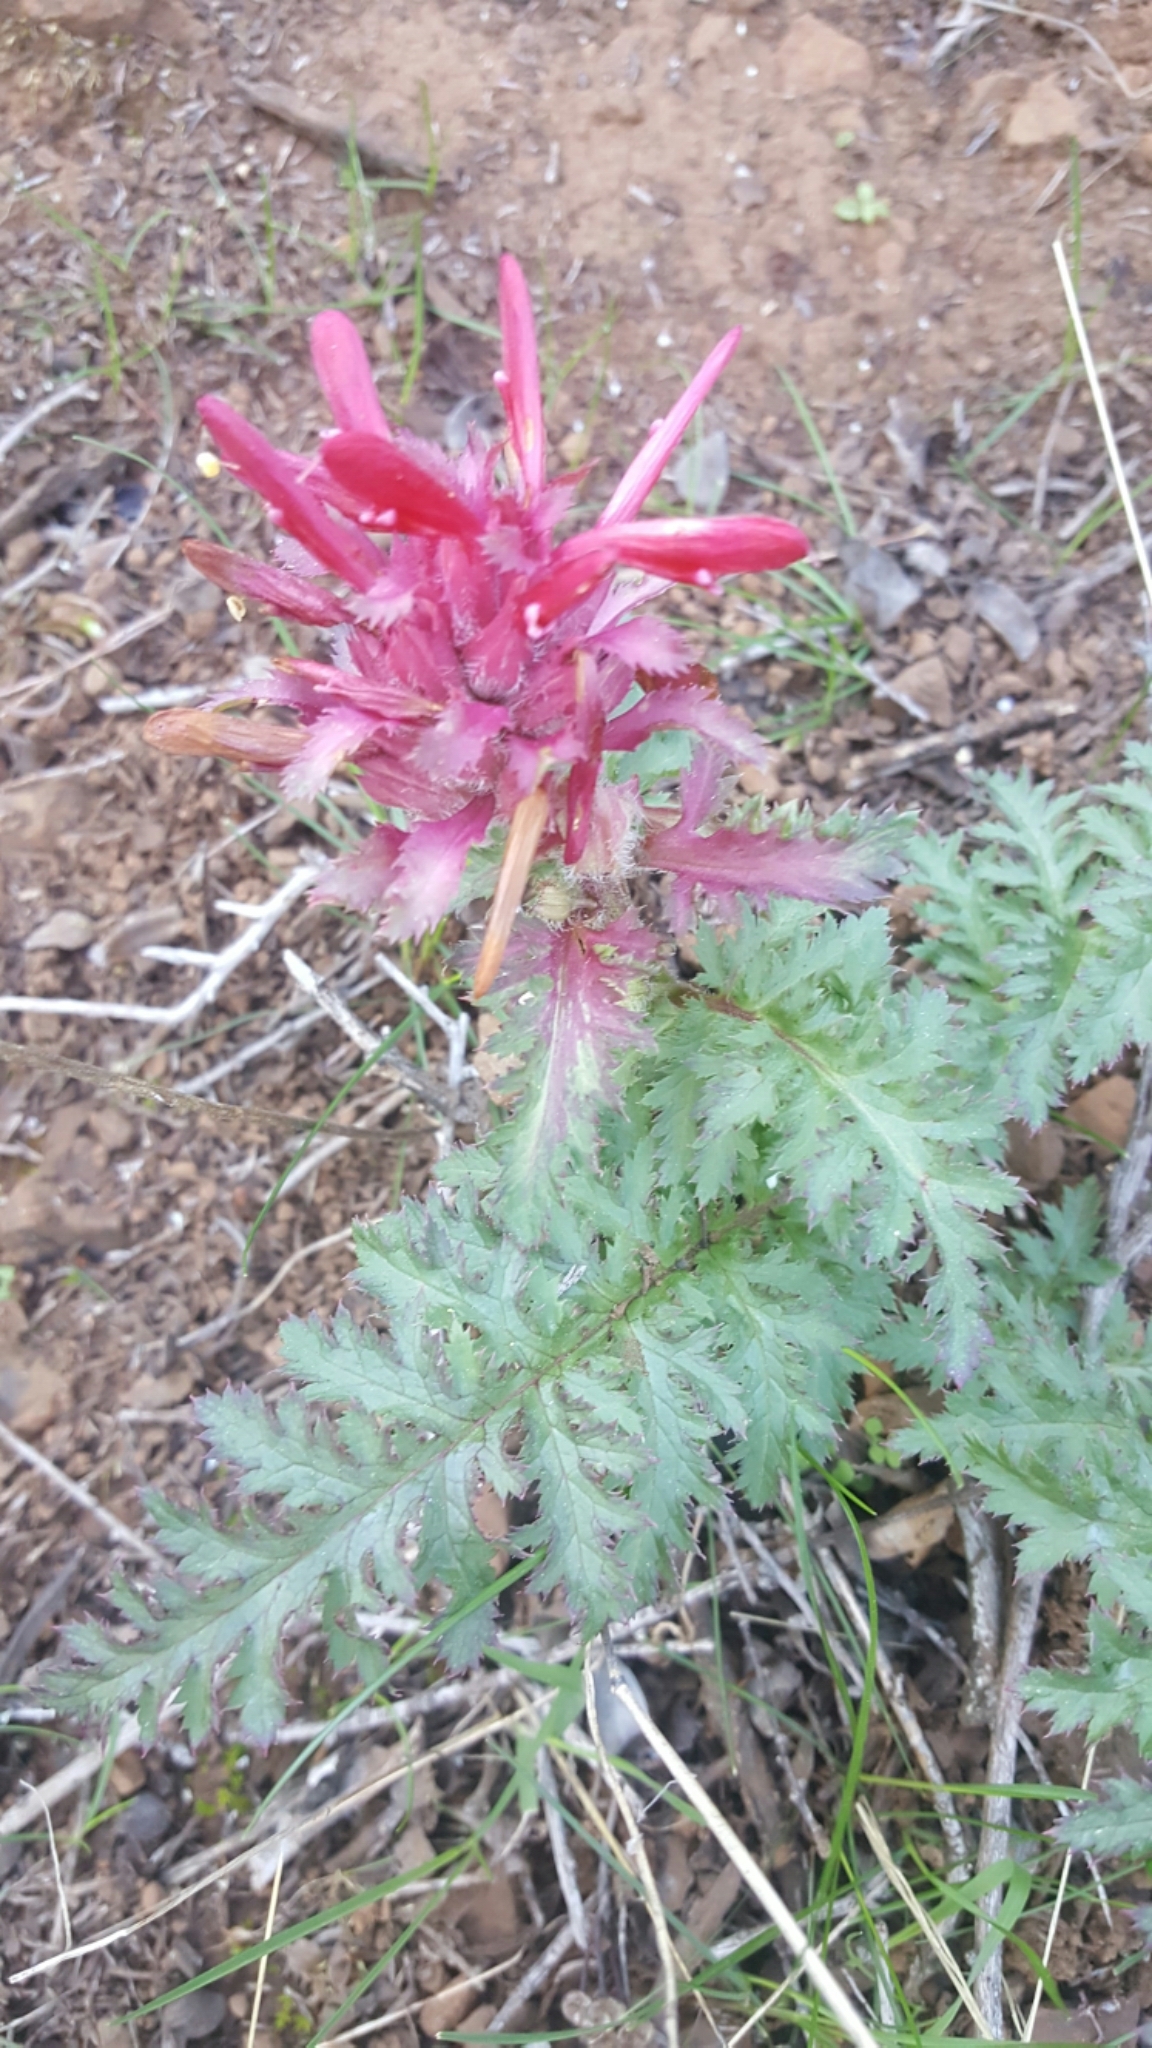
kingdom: Plantae
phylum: Tracheophyta
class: Magnoliopsida
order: Lamiales
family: Orobanchaceae
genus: Pedicularis
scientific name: Pedicularis densiflora
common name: Indian warrior
